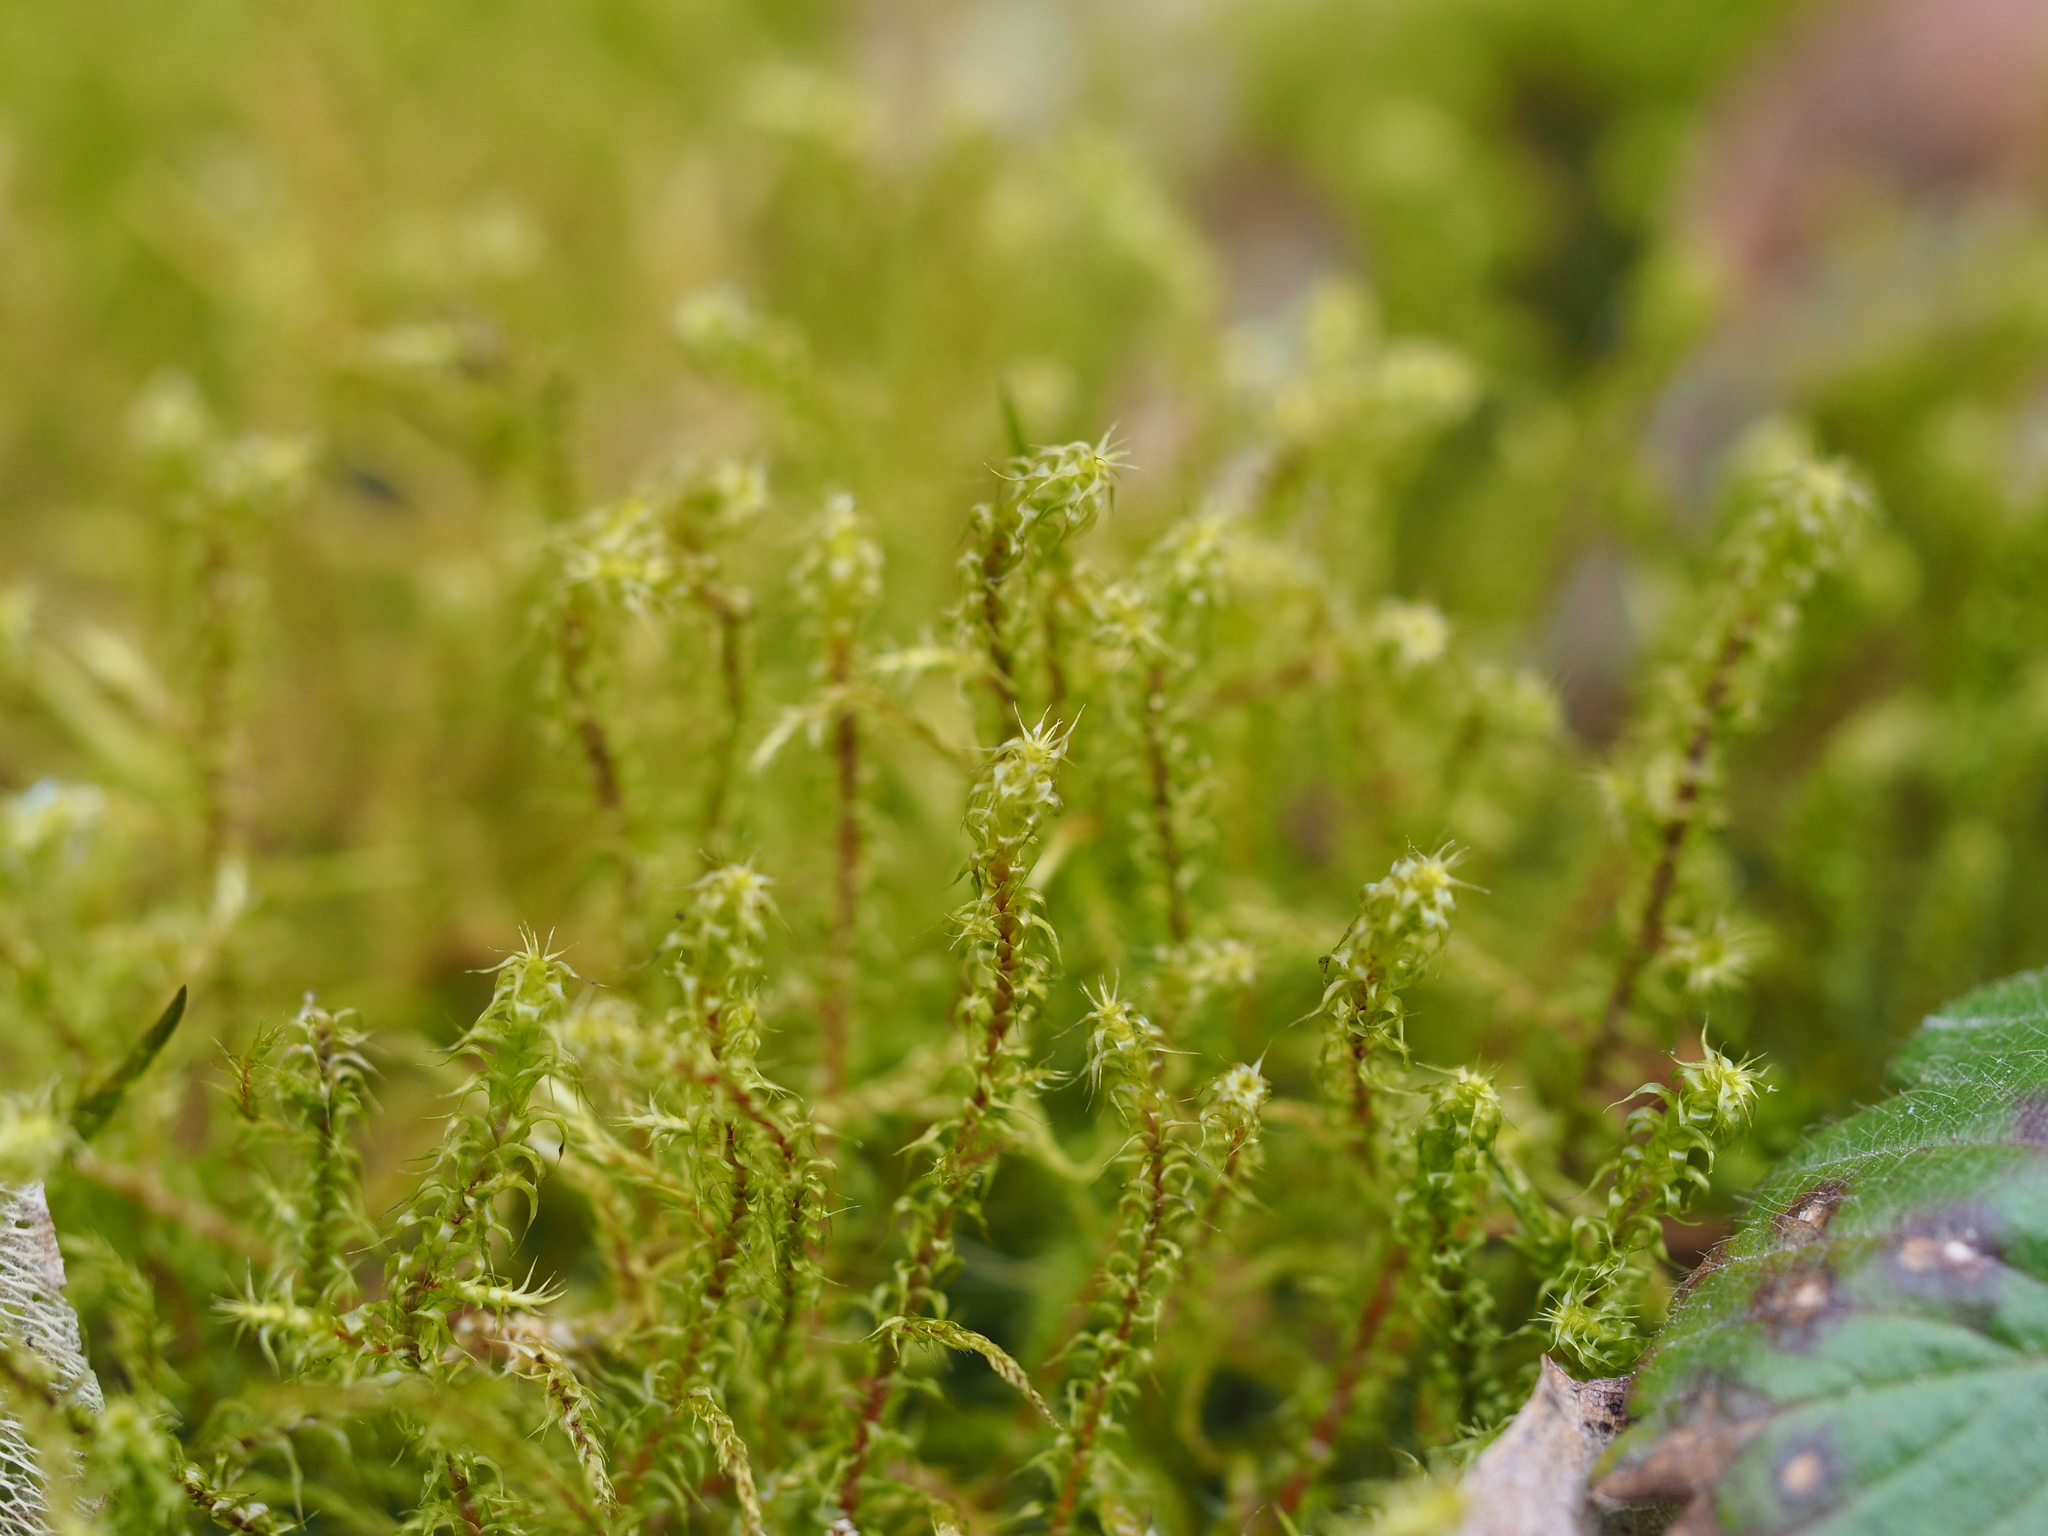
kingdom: Plantae
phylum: Bryophyta
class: Bryopsida
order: Hypnales
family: Hylocomiaceae
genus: Rhytidiadelphus
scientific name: Rhytidiadelphus squarrosus
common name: Springy turf-moss
